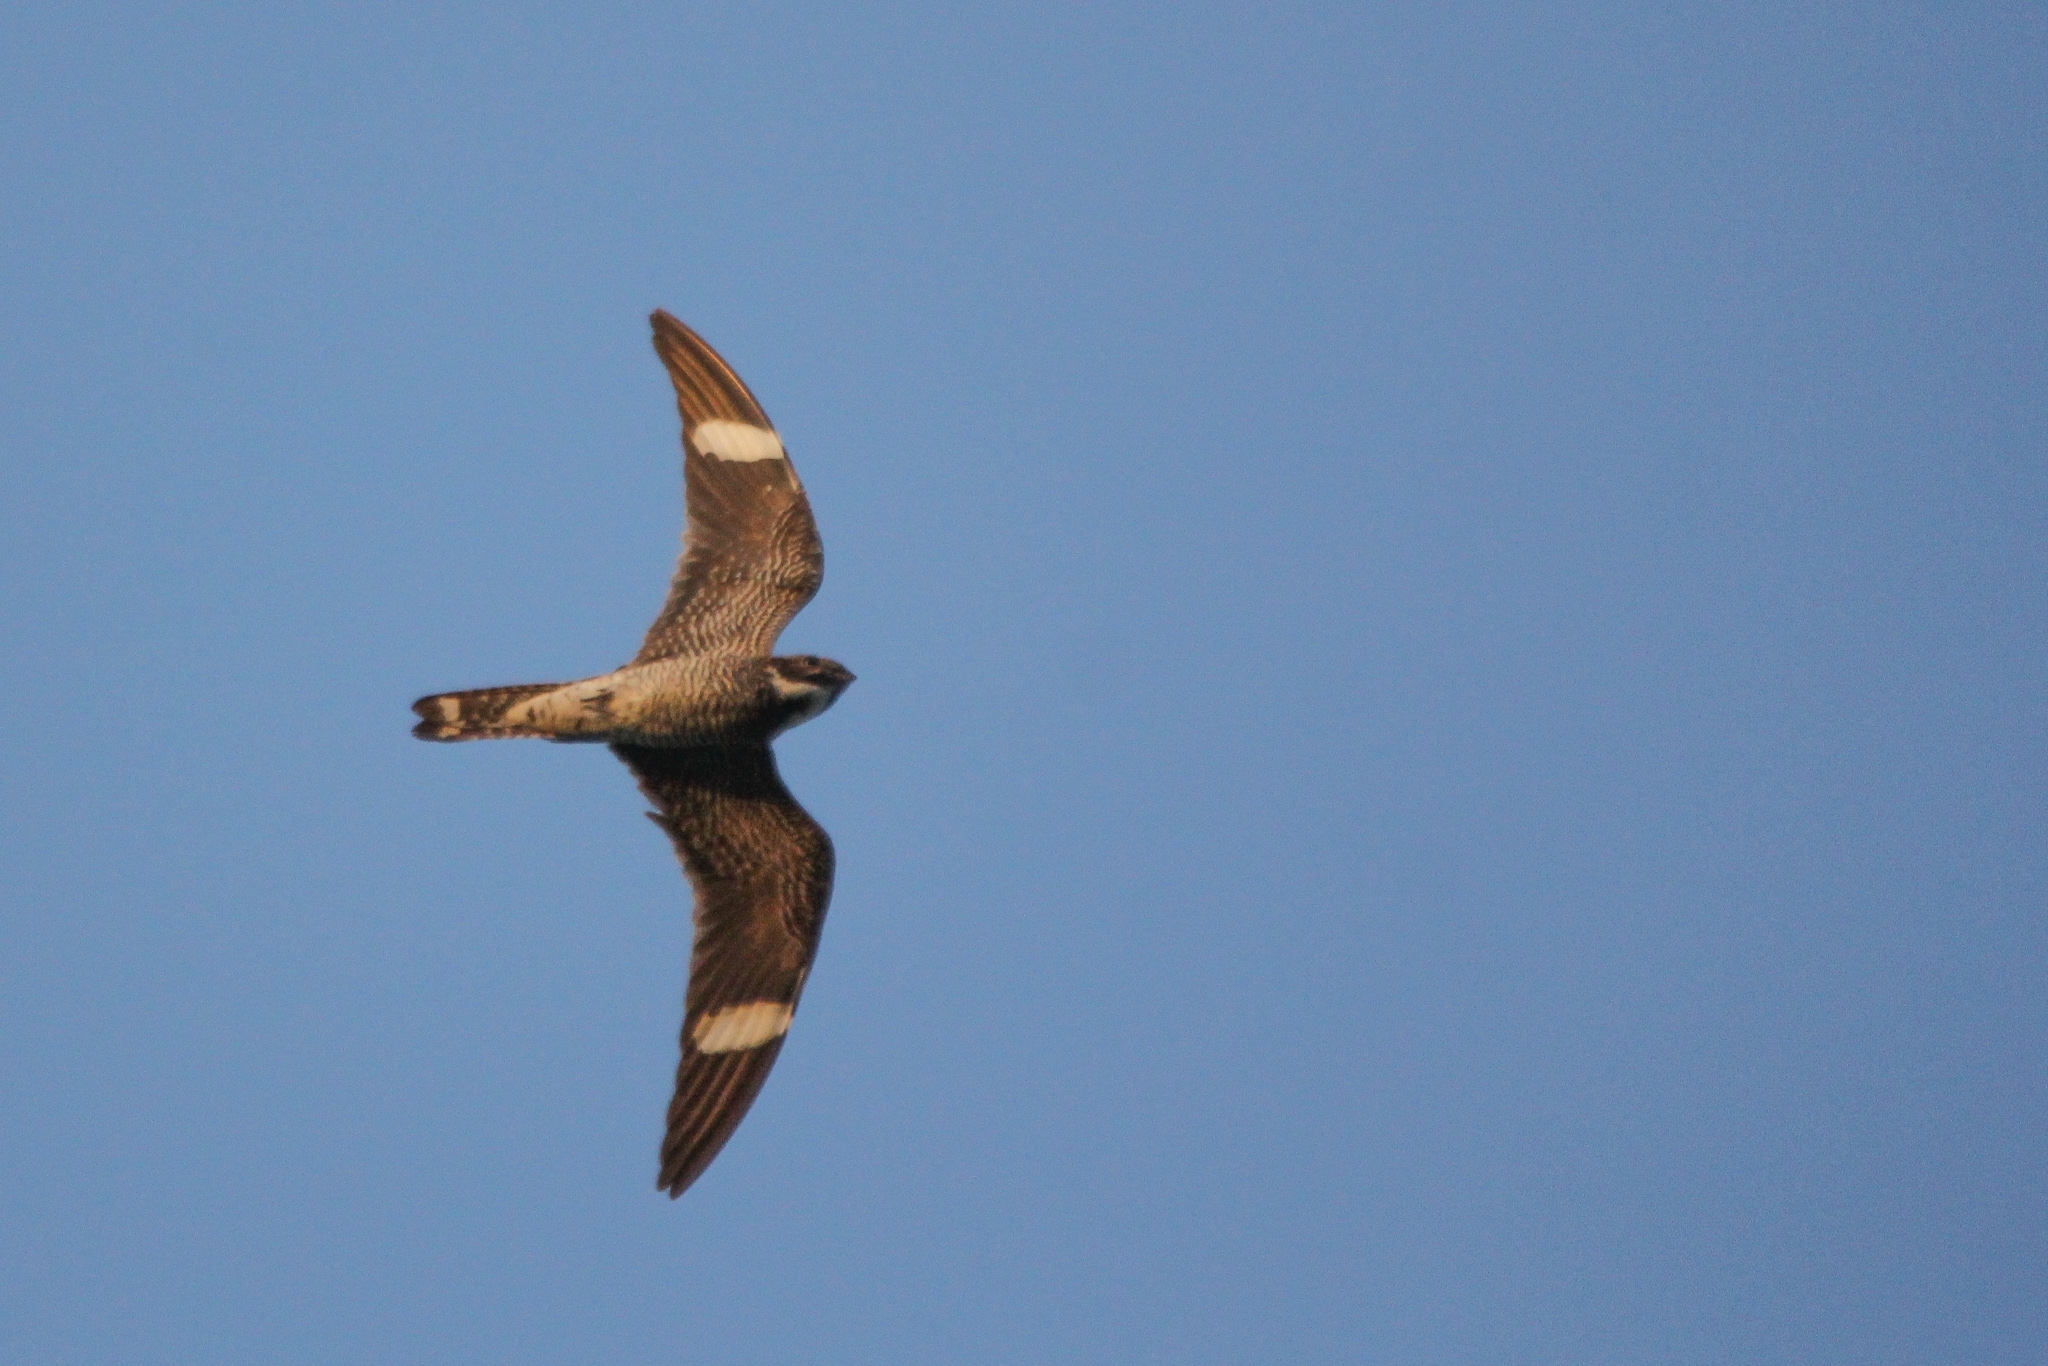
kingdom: Animalia
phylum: Chordata
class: Aves
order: Caprimulgiformes
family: Caprimulgidae
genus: Chordeiles
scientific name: Chordeiles minor
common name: Common nighthawk
